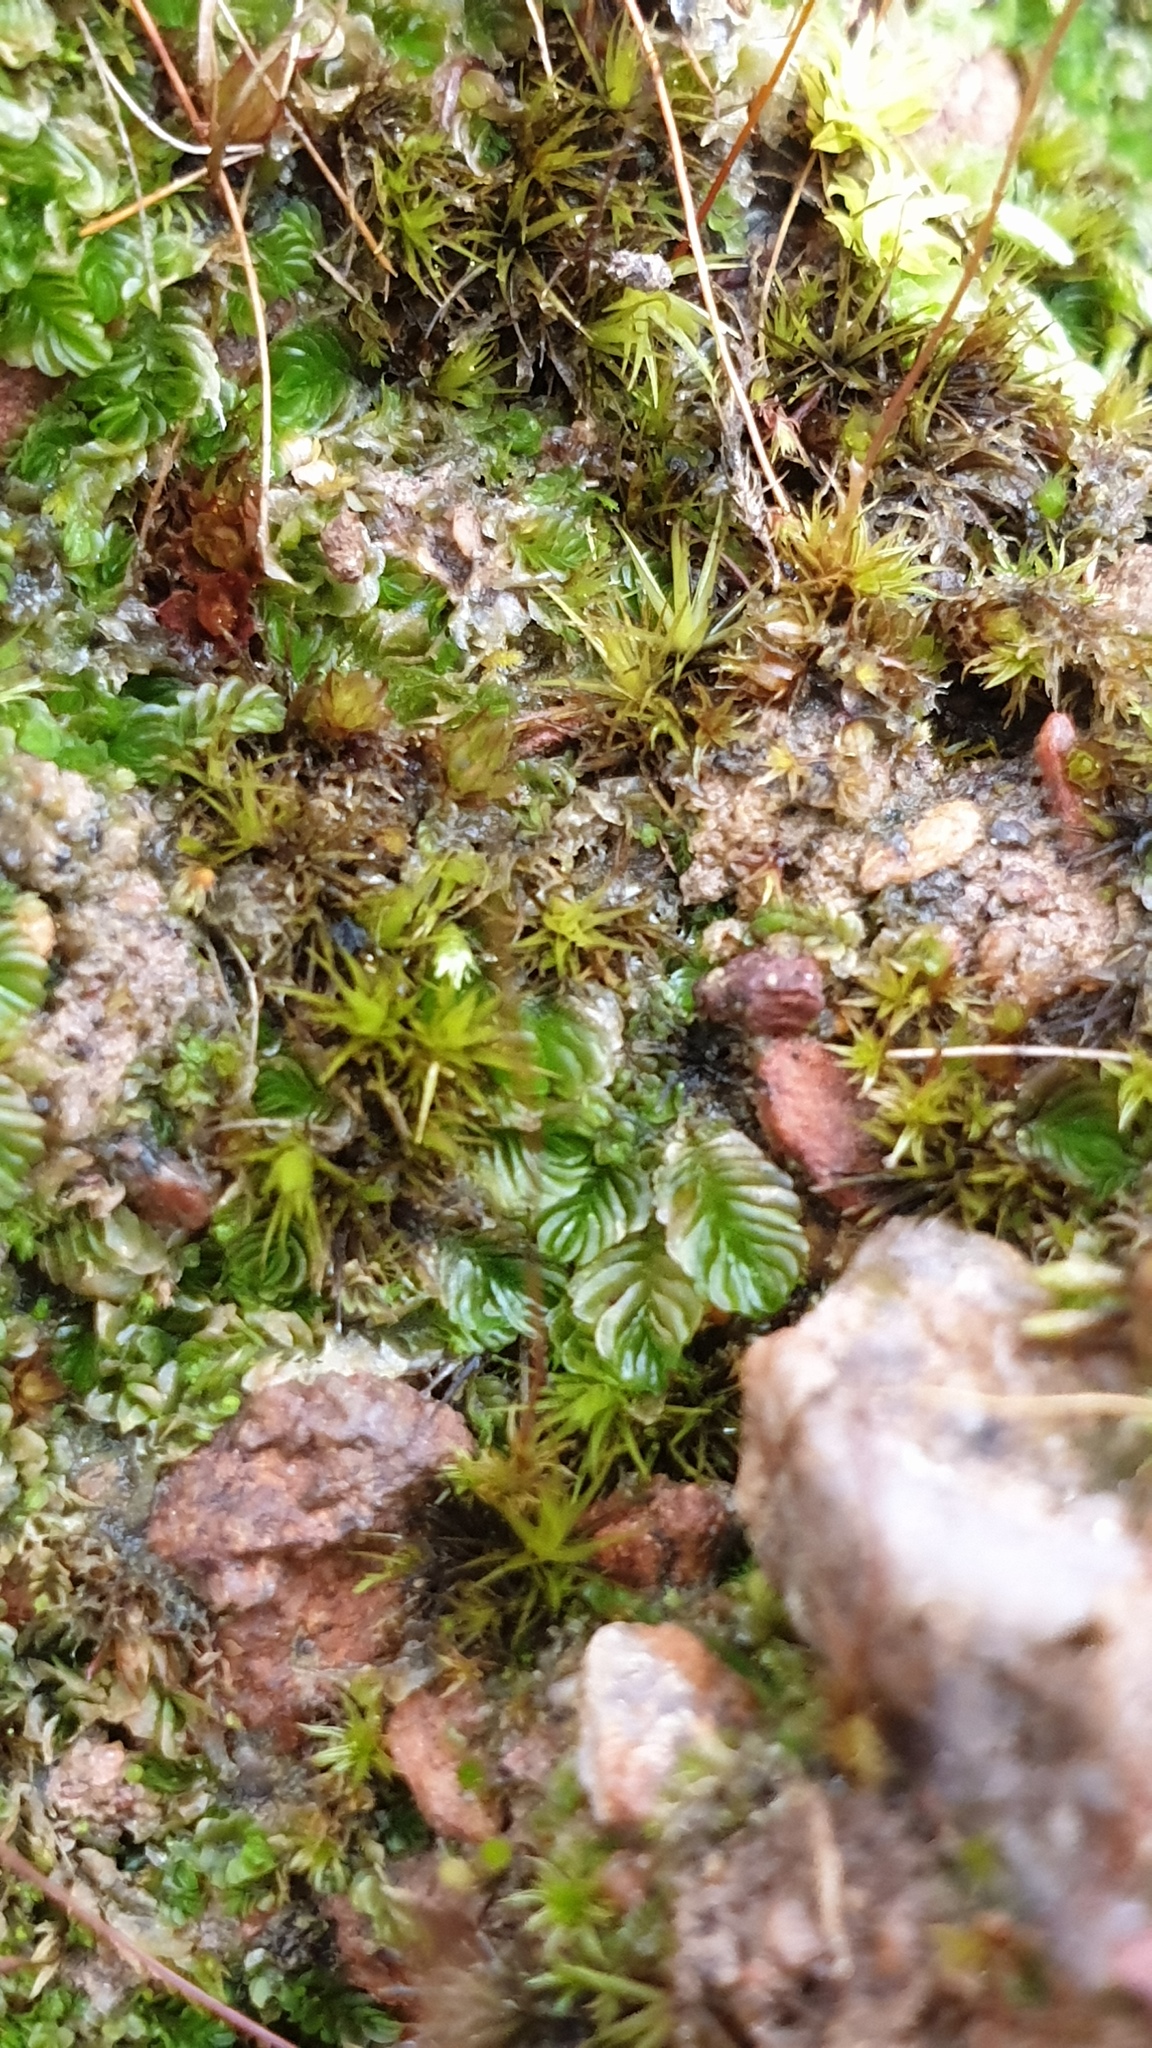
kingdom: Plantae
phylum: Marchantiophyta
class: Jungermanniopsida
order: Jungermanniales
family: Acrobolbaceae
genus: Lethocolea
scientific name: Lethocolea pansa
